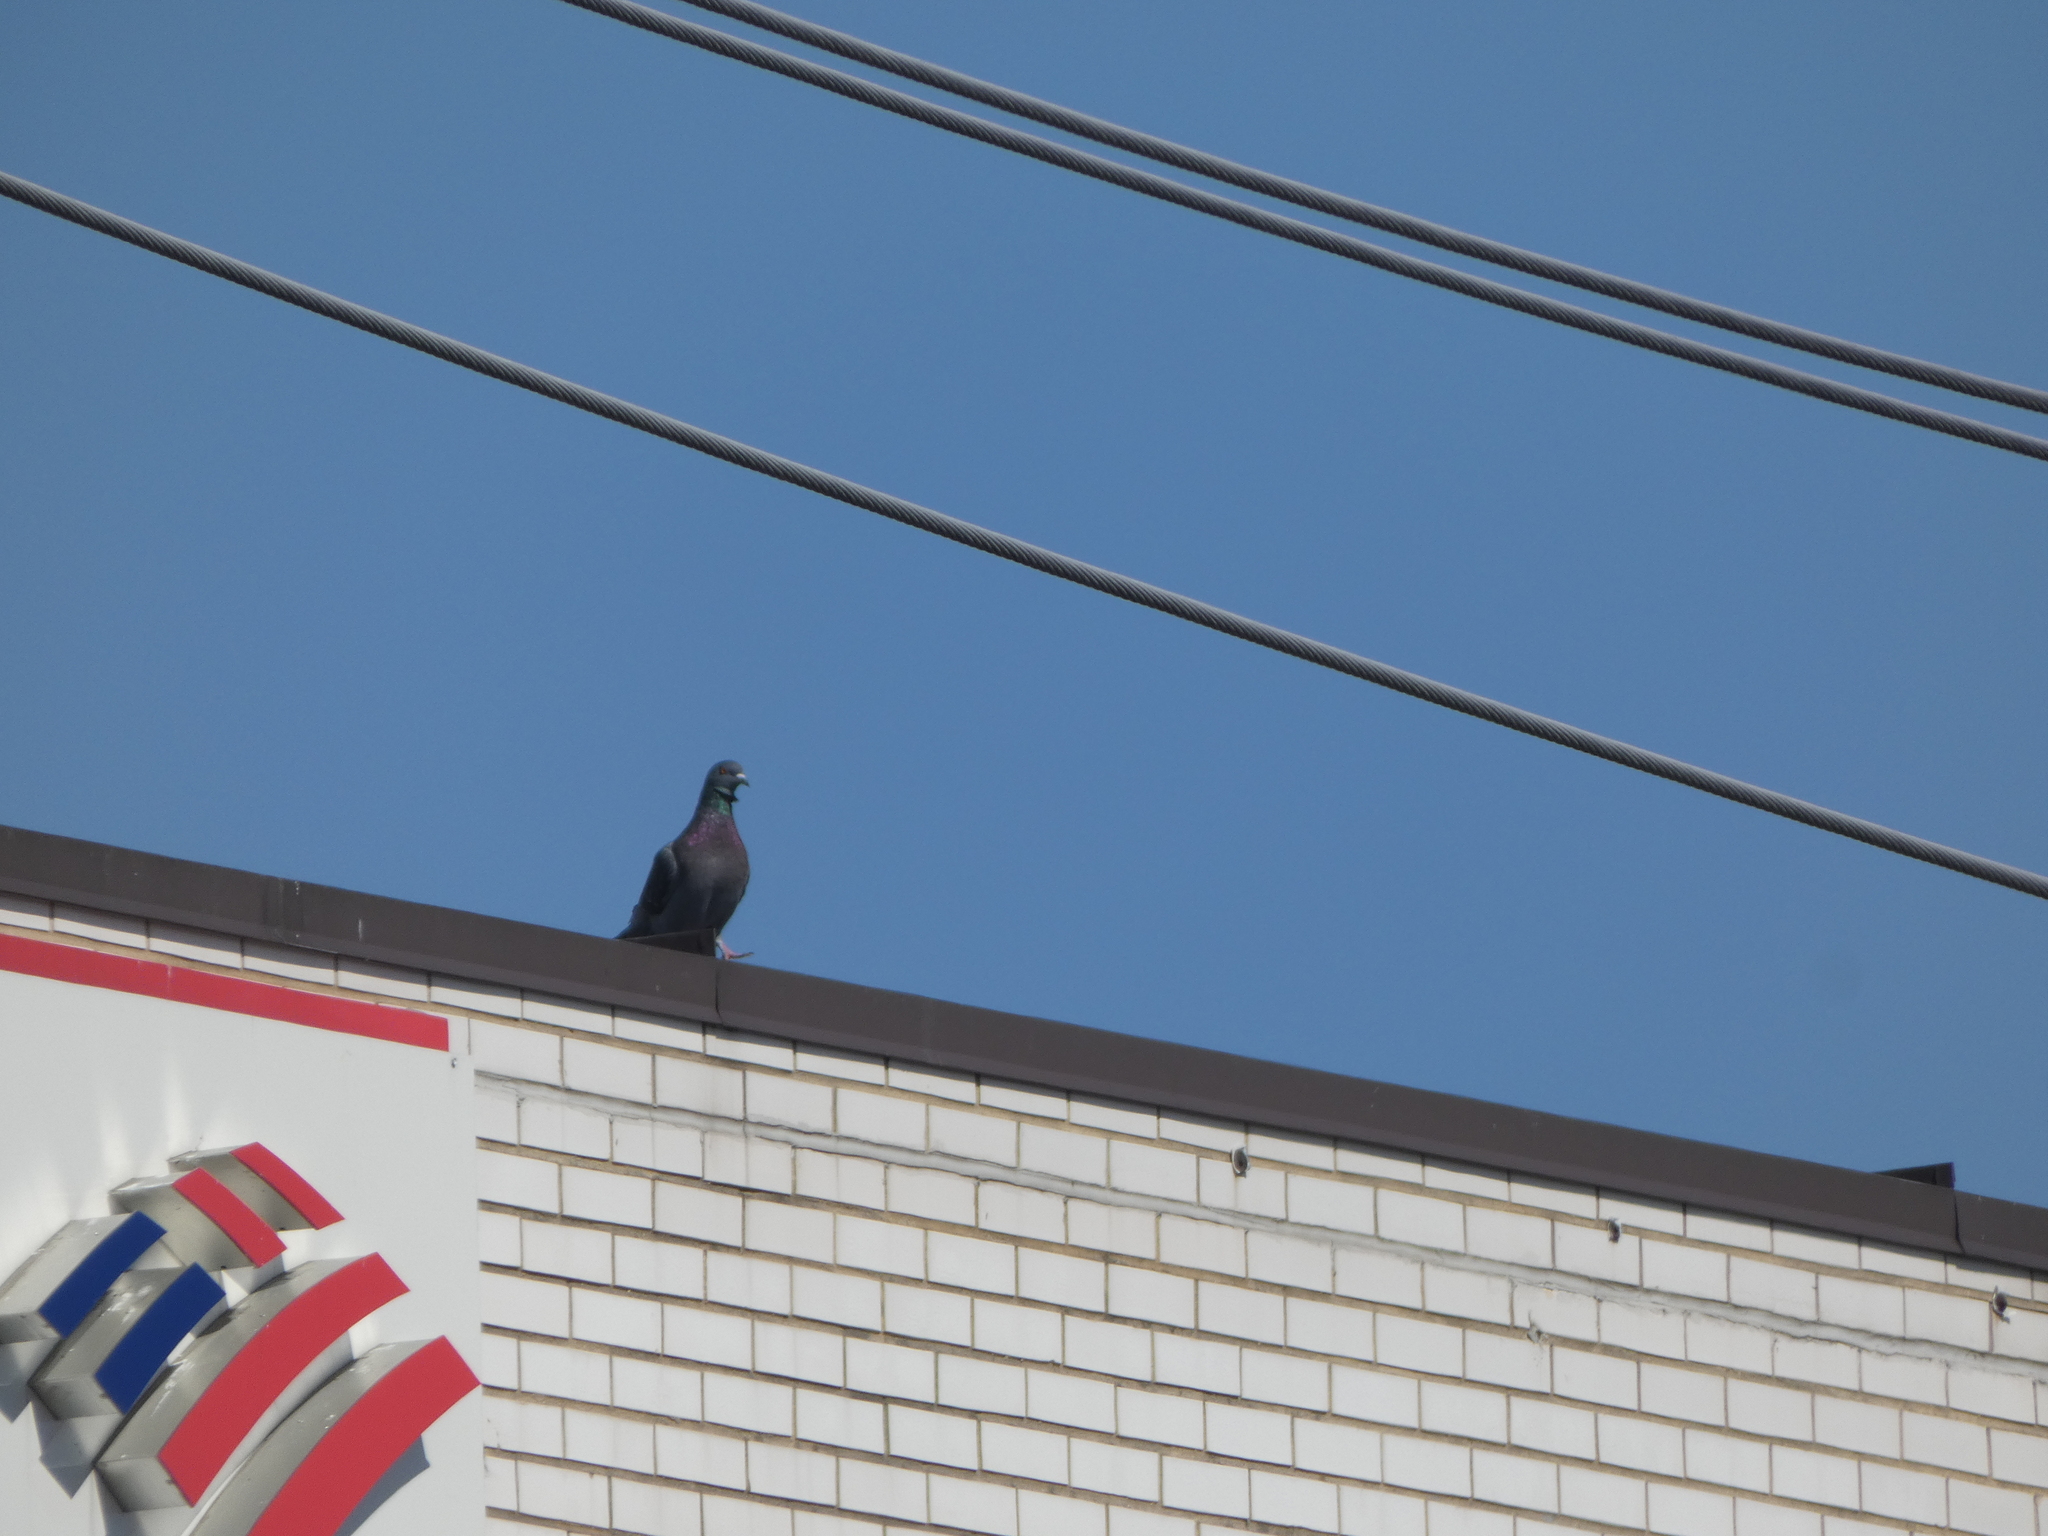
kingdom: Animalia
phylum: Chordata
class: Aves
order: Columbiformes
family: Columbidae
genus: Columba
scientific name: Columba livia
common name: Rock pigeon
